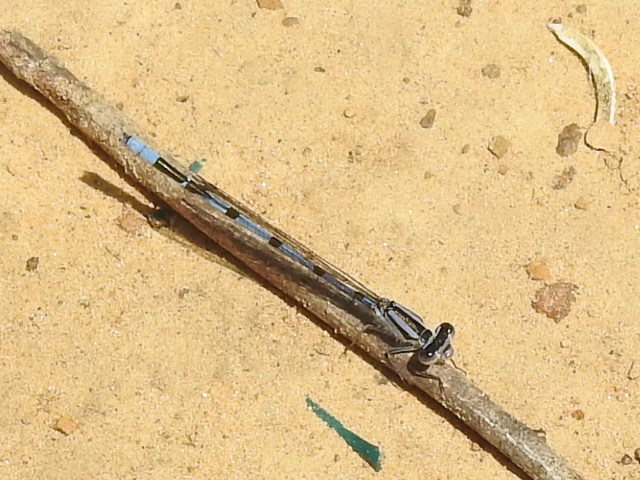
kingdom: Animalia
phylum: Arthropoda
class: Insecta
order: Odonata
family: Coenagrionidae
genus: Enallagma
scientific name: Enallagma civile
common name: Damselfly
